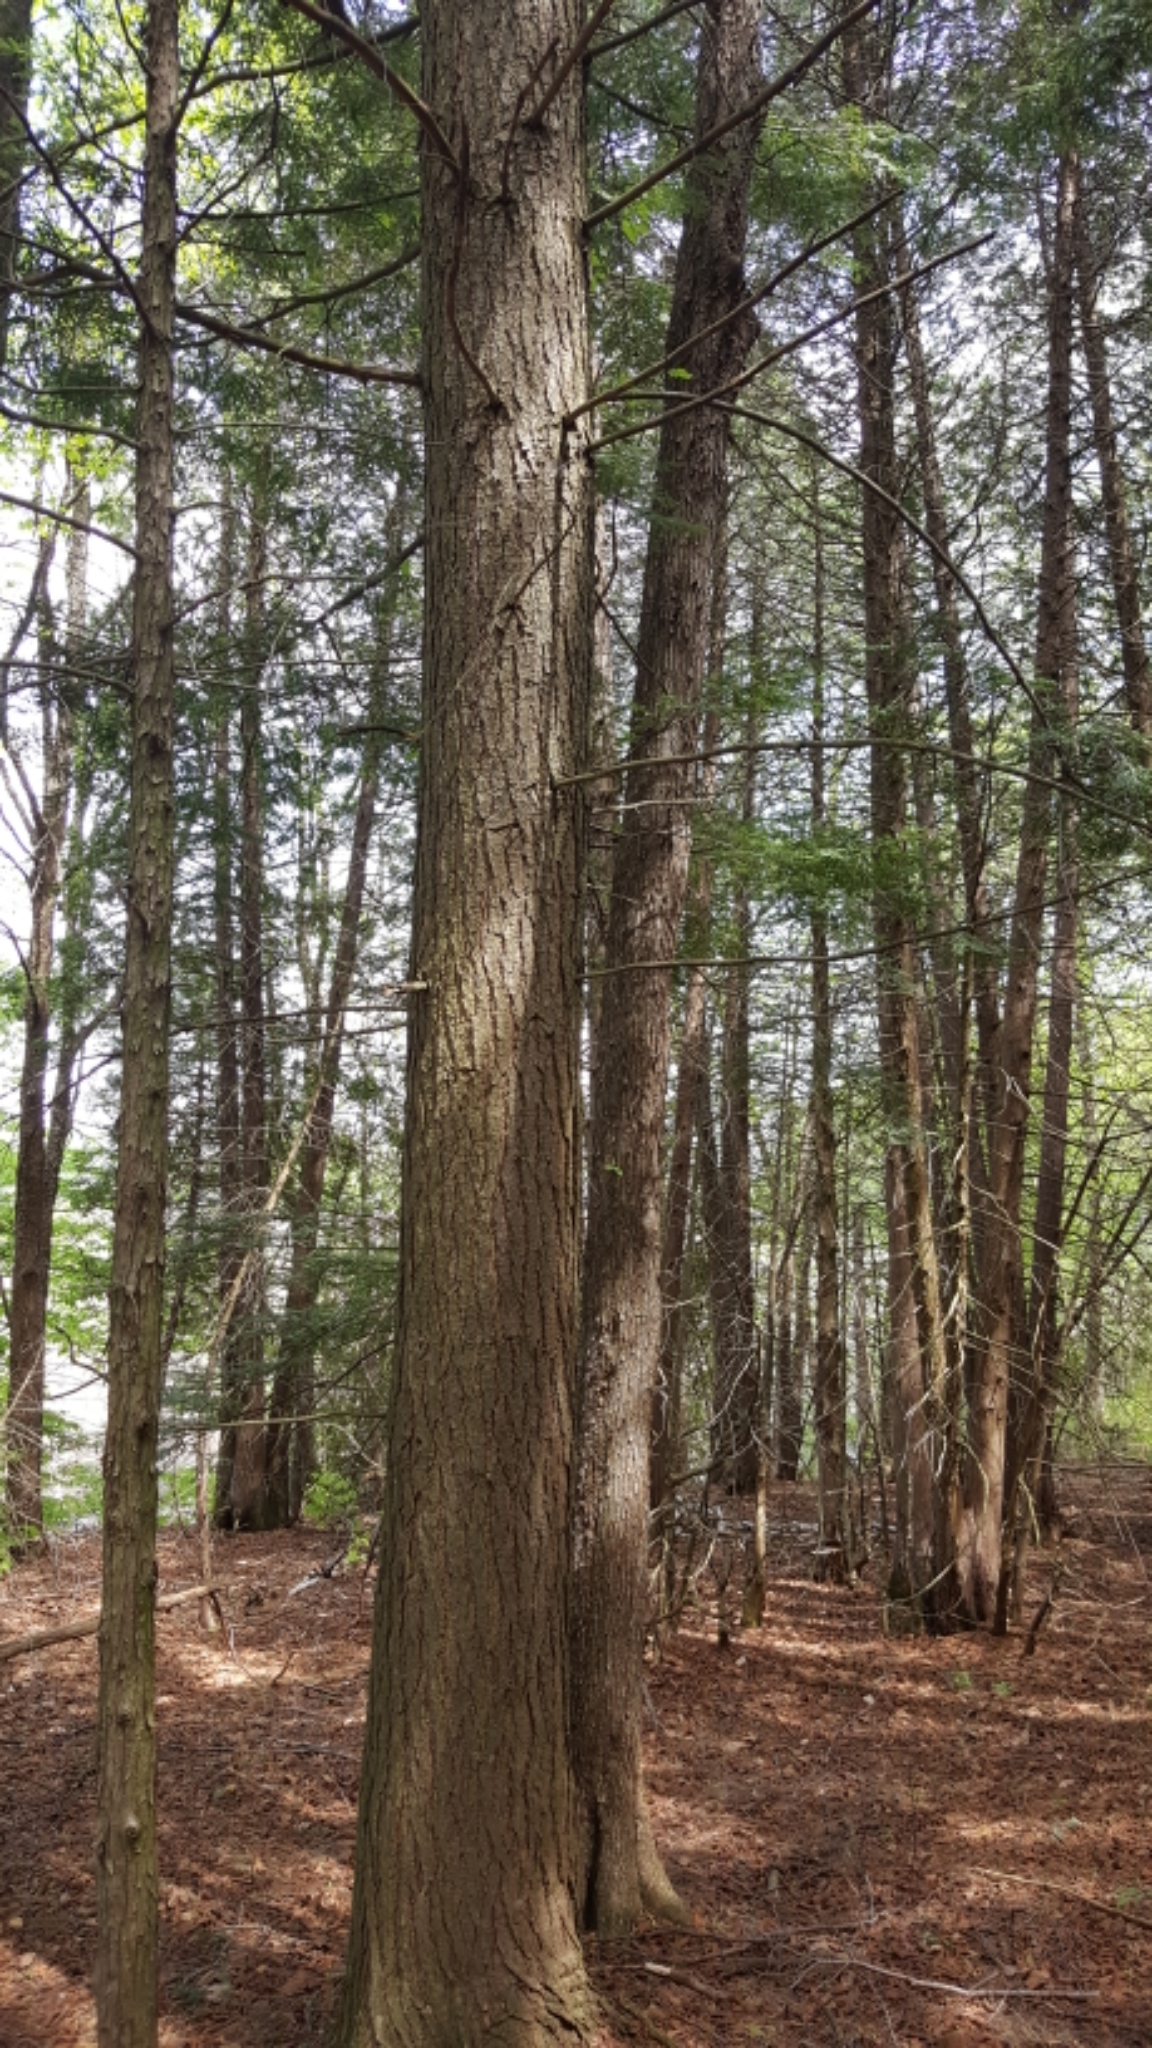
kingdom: Plantae
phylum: Tracheophyta
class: Pinopsida
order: Pinales
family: Pinaceae
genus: Tsuga
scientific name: Tsuga canadensis
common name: Eastern hemlock
